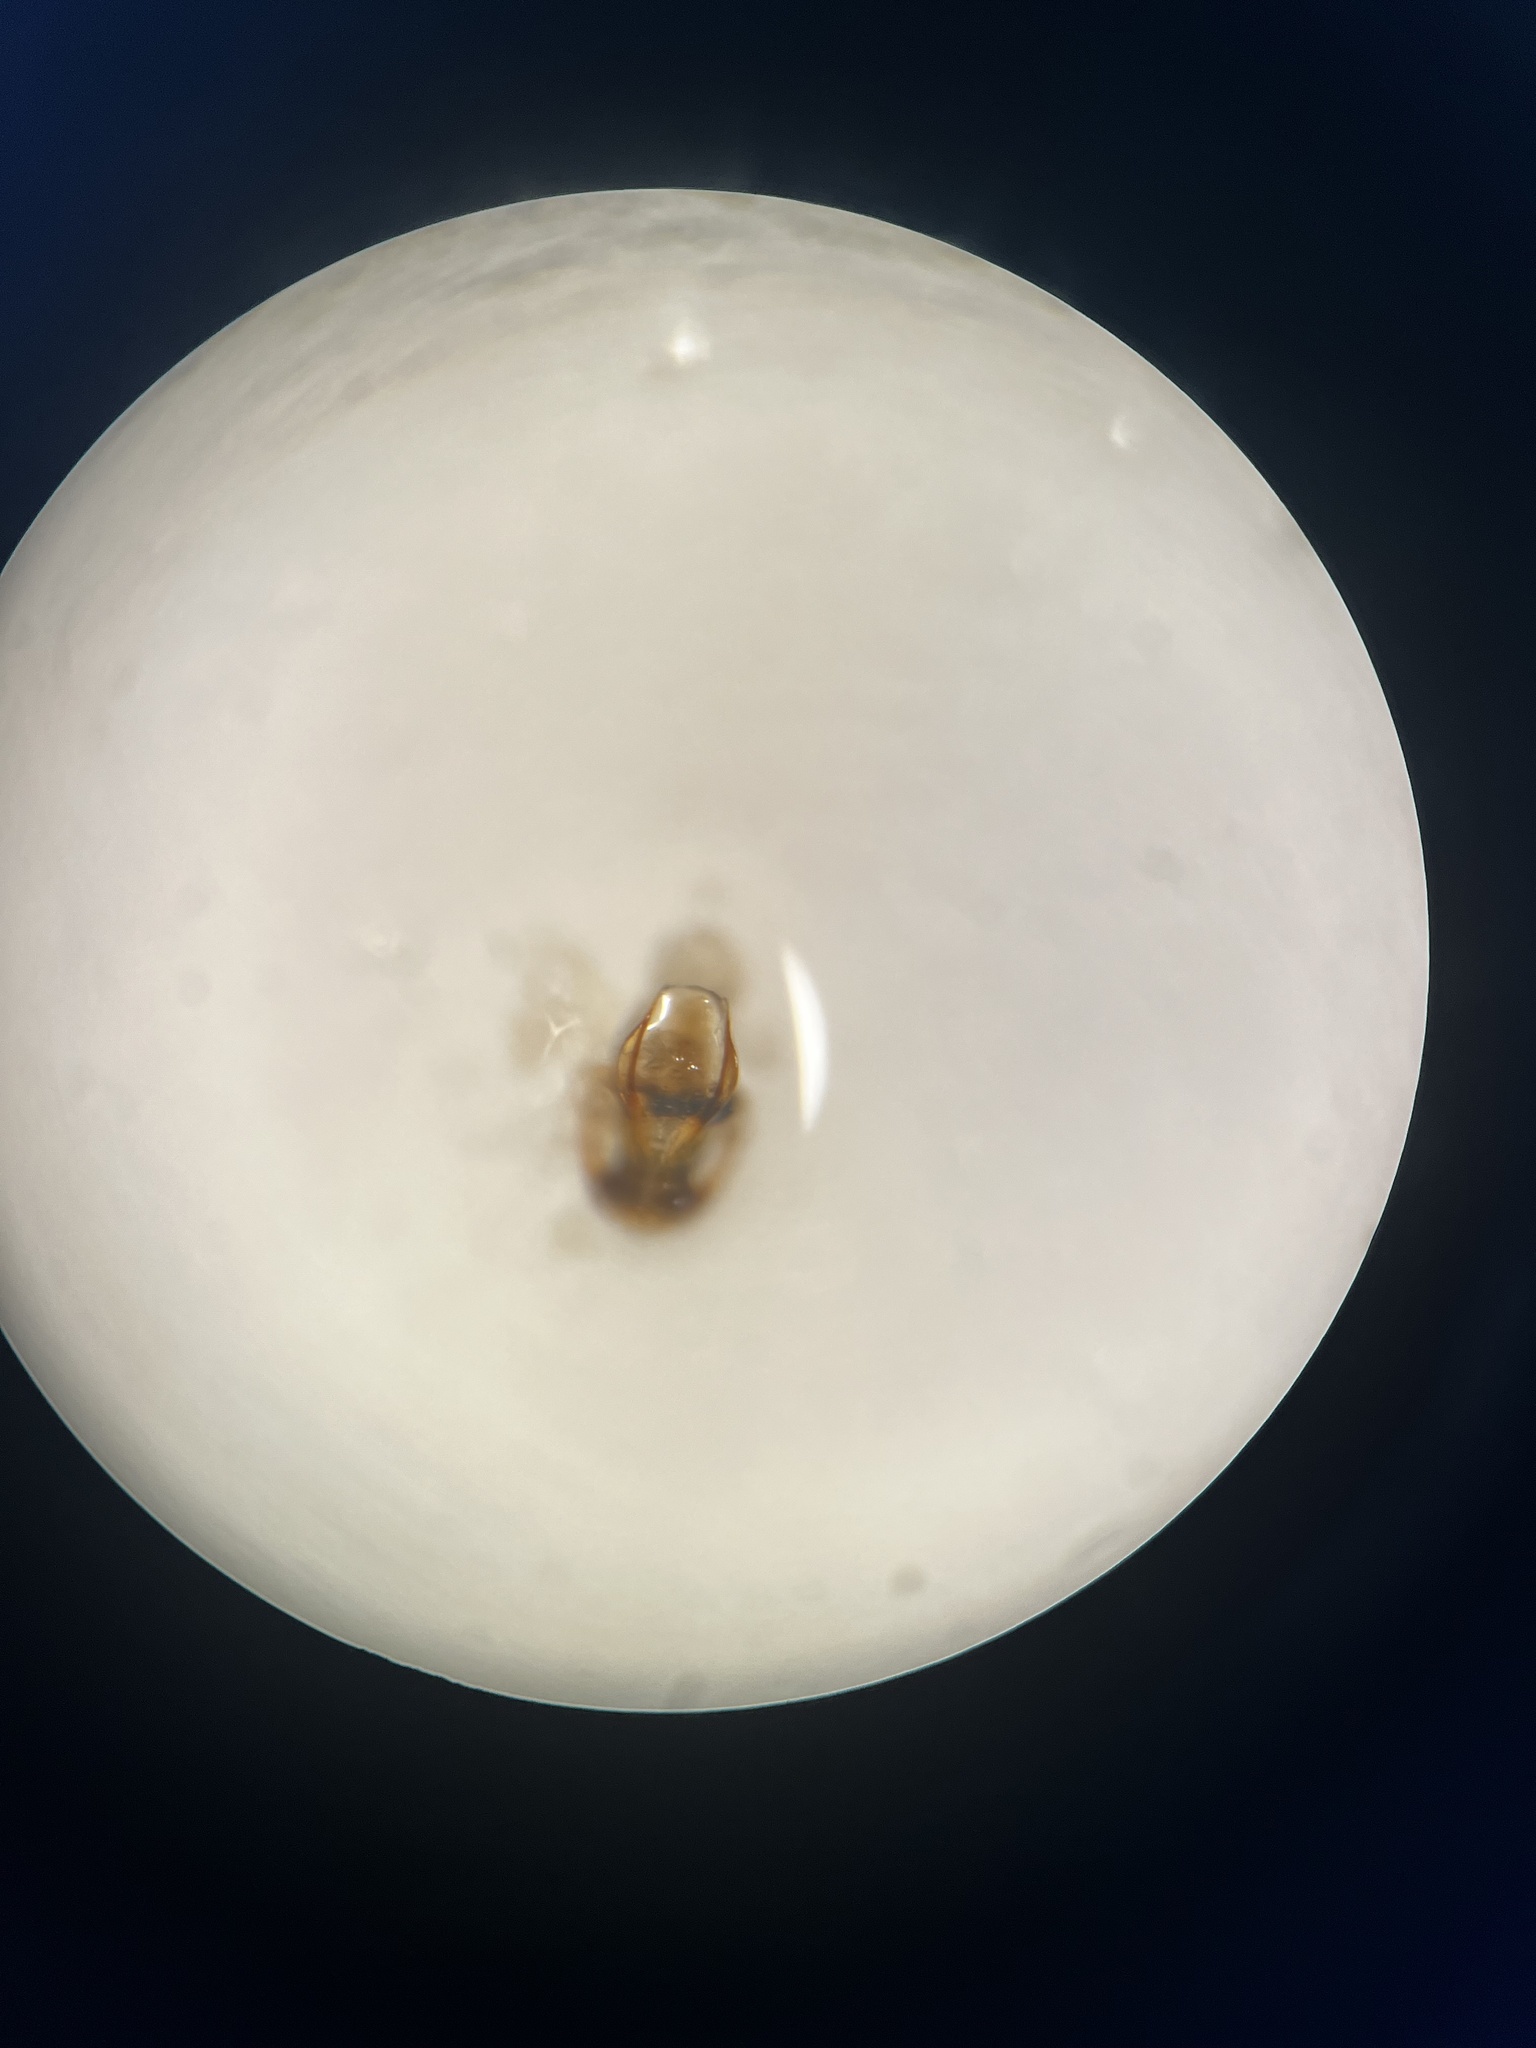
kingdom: Animalia
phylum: Arthropoda
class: Insecta
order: Hemiptera
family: Cicadellidae
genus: Psammotettix
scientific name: Psammotettix confinis
